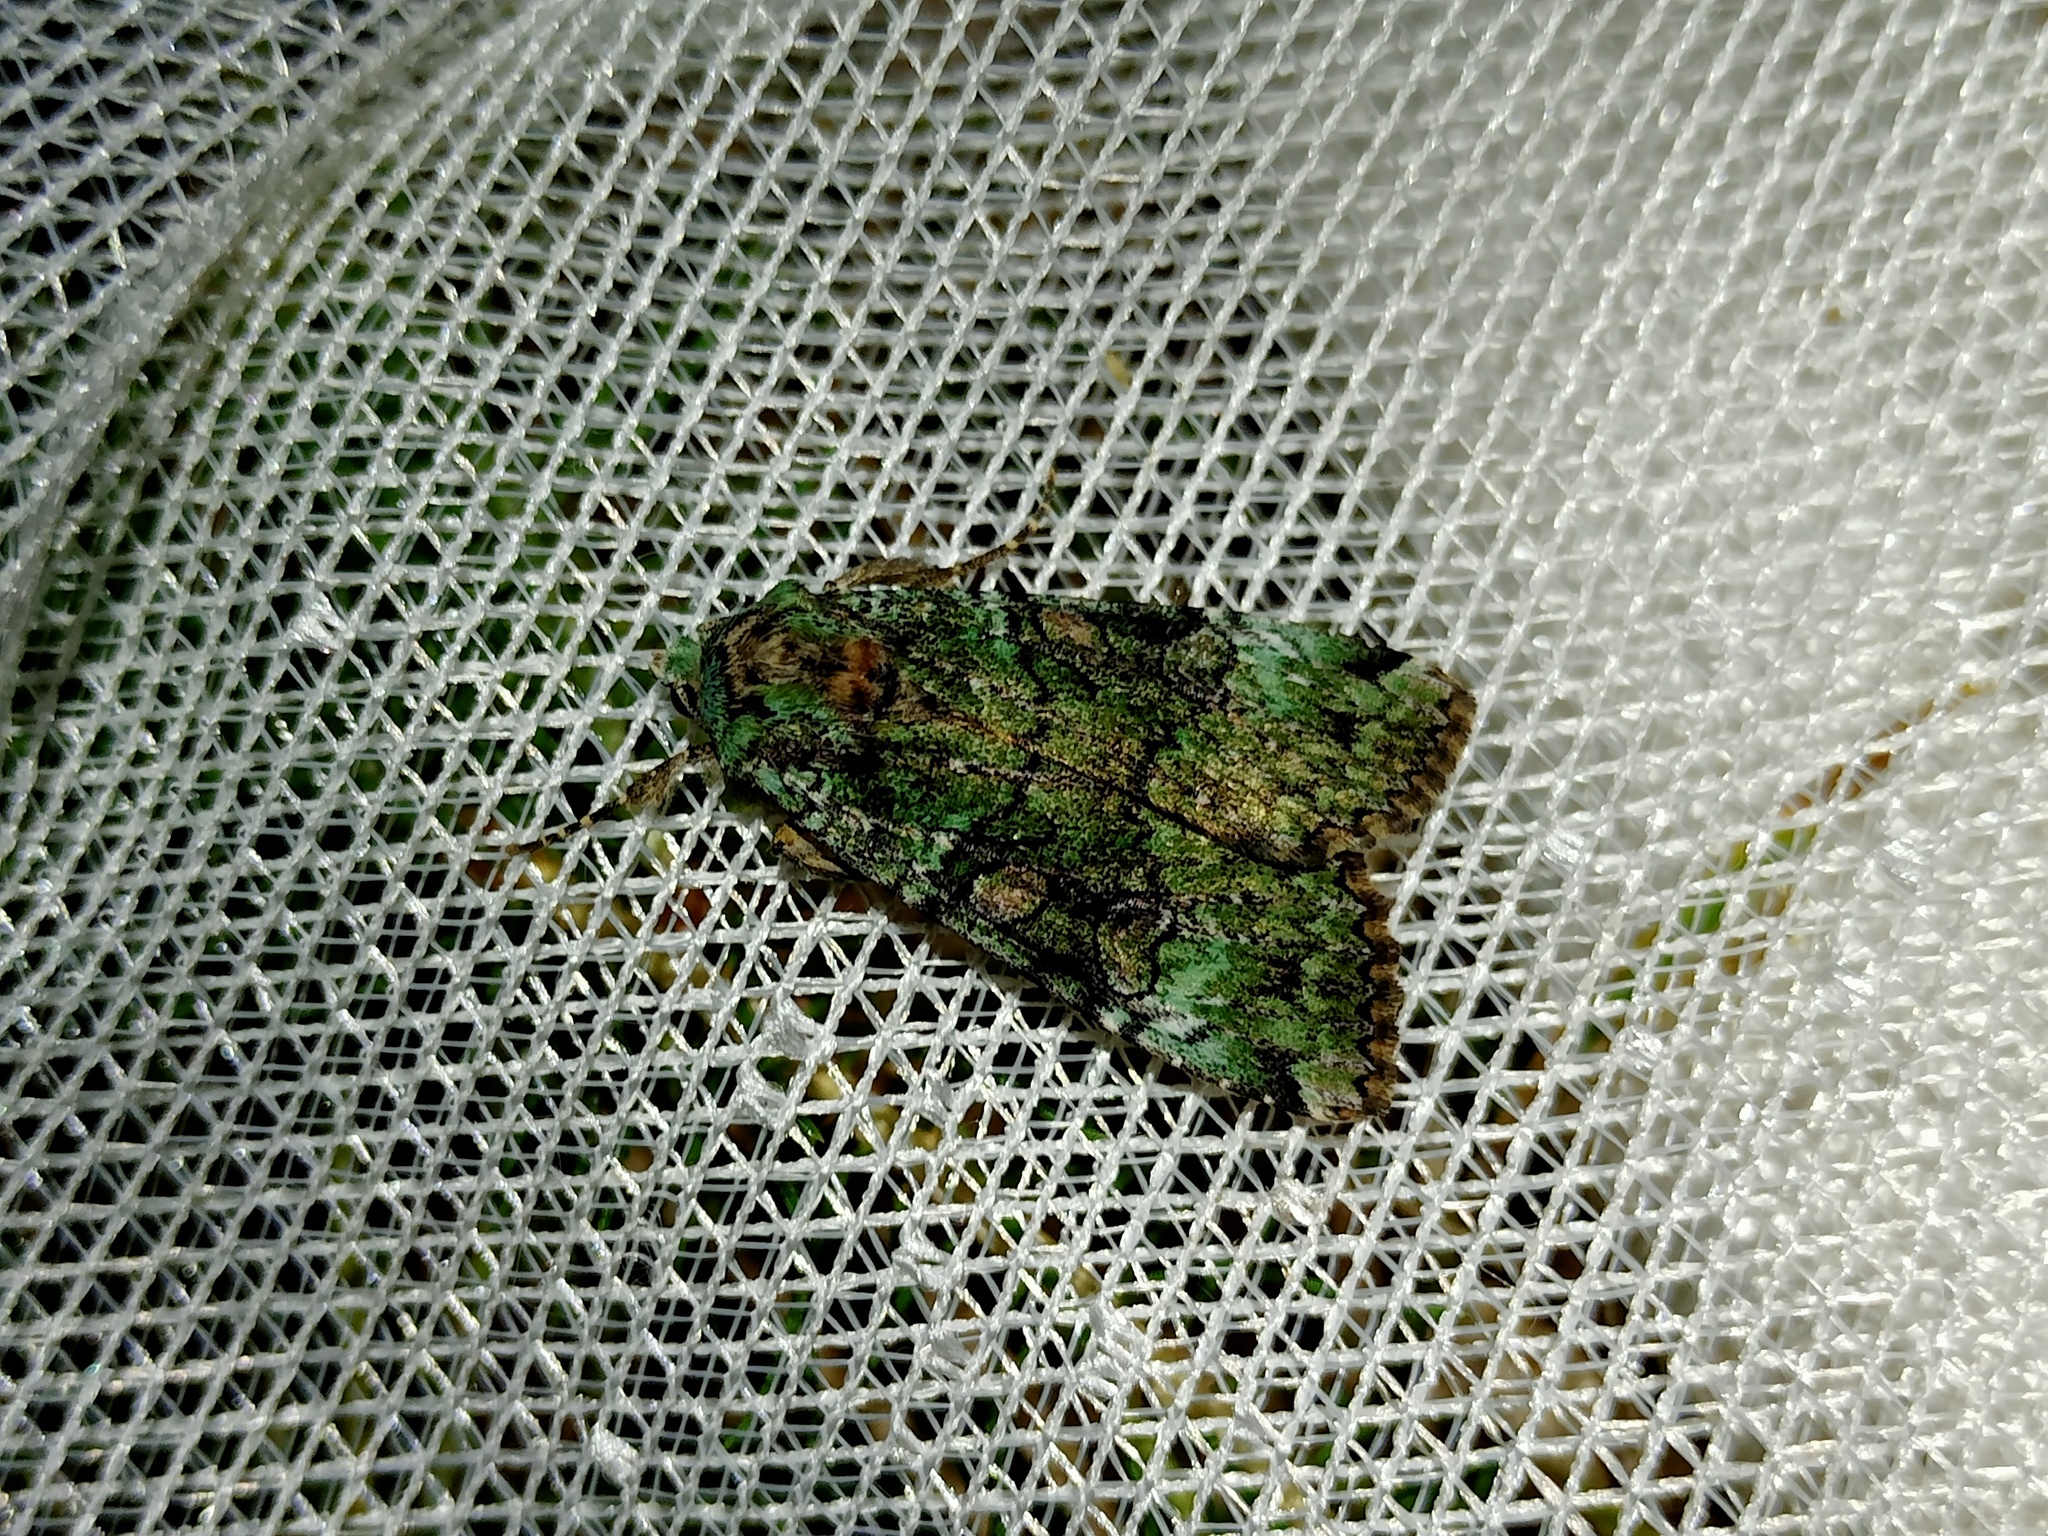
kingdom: Animalia
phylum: Arthropoda
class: Insecta
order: Lepidoptera
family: Noctuidae
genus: Anaplectoides
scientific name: Anaplectoides prasina
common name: Green arches
